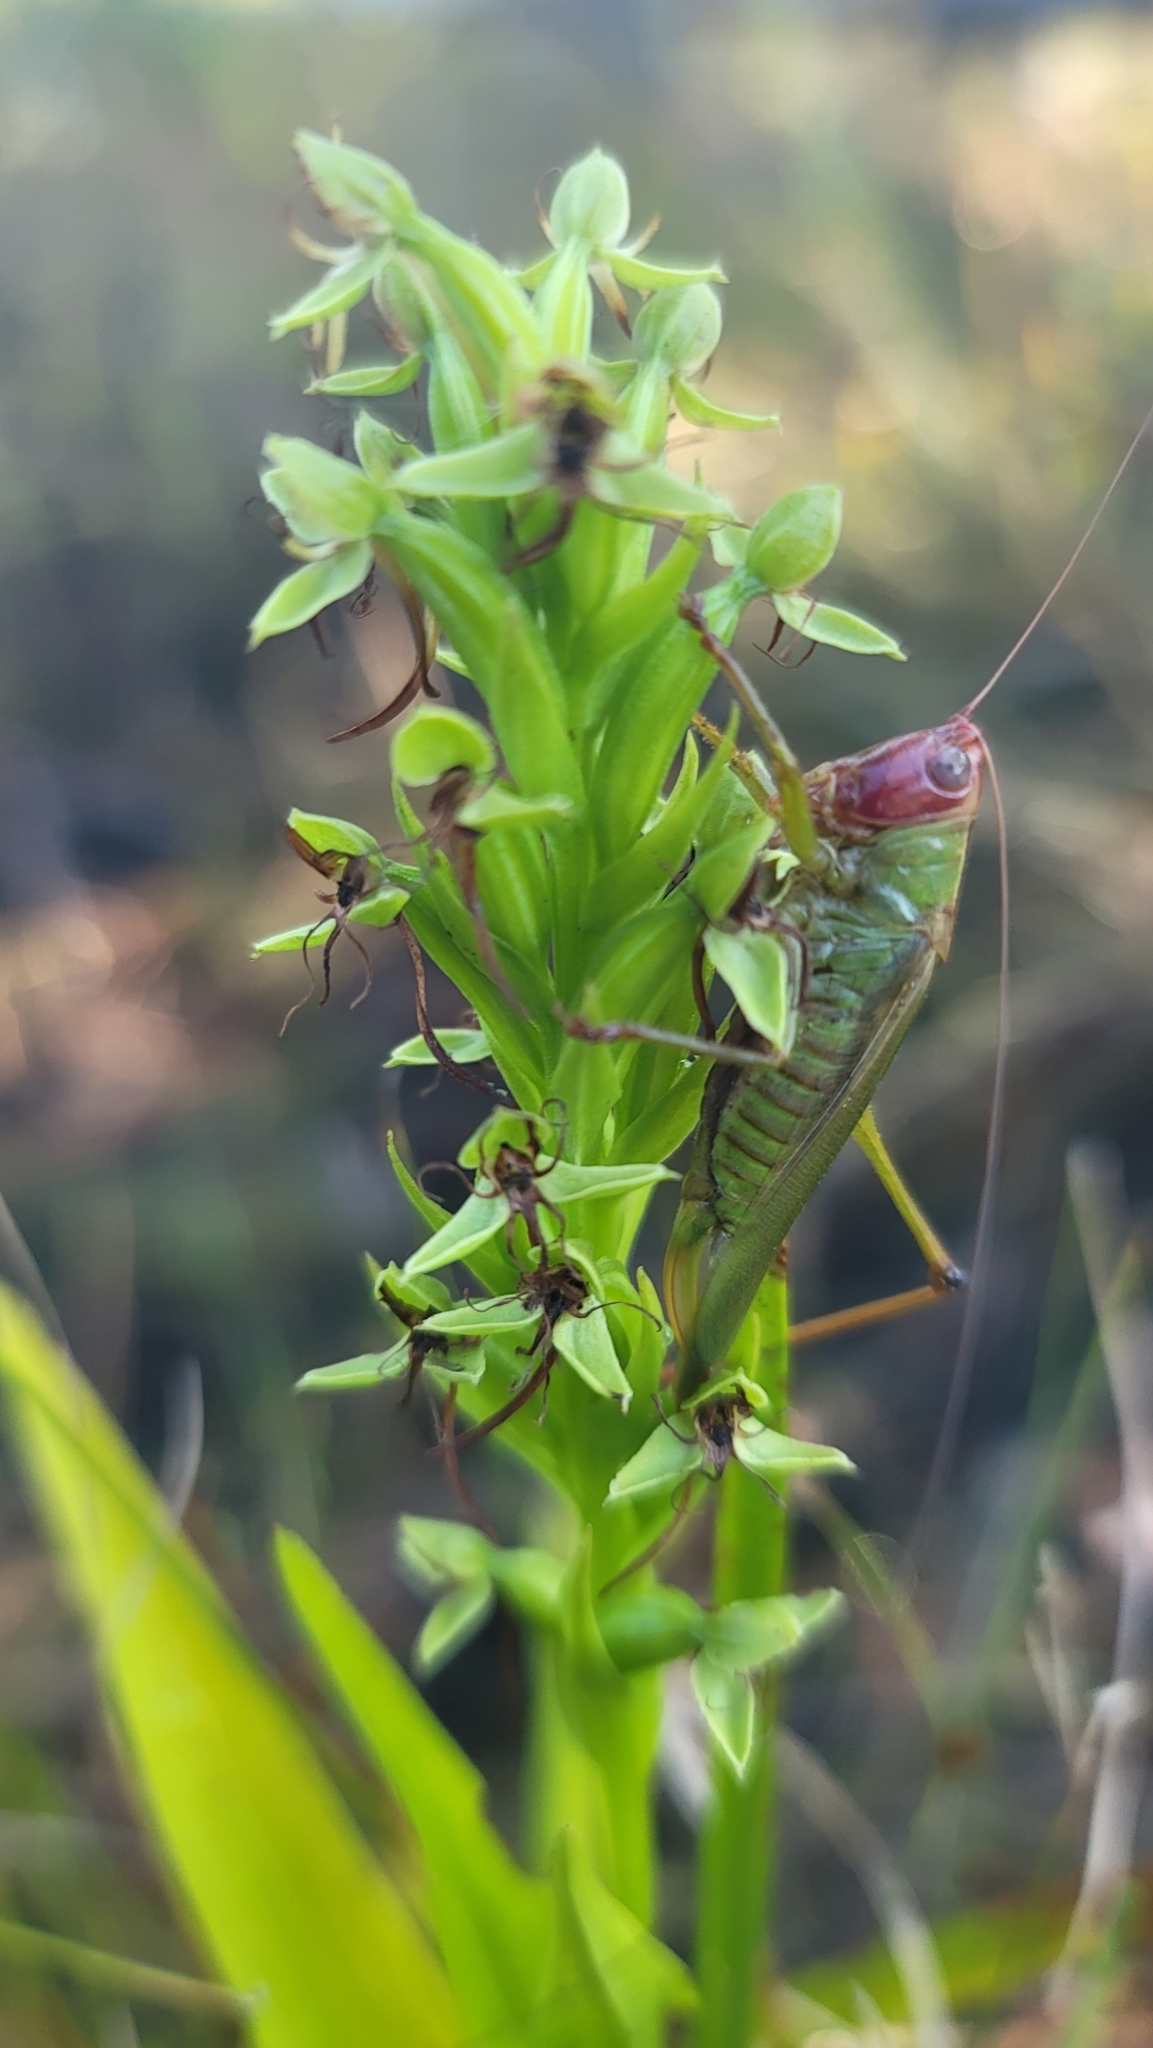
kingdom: Animalia
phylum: Arthropoda
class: Insecta
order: Orthoptera
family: Tettigoniidae
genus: Orchelimum
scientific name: Orchelimum pulchellum
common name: Handsome meadow katydid
